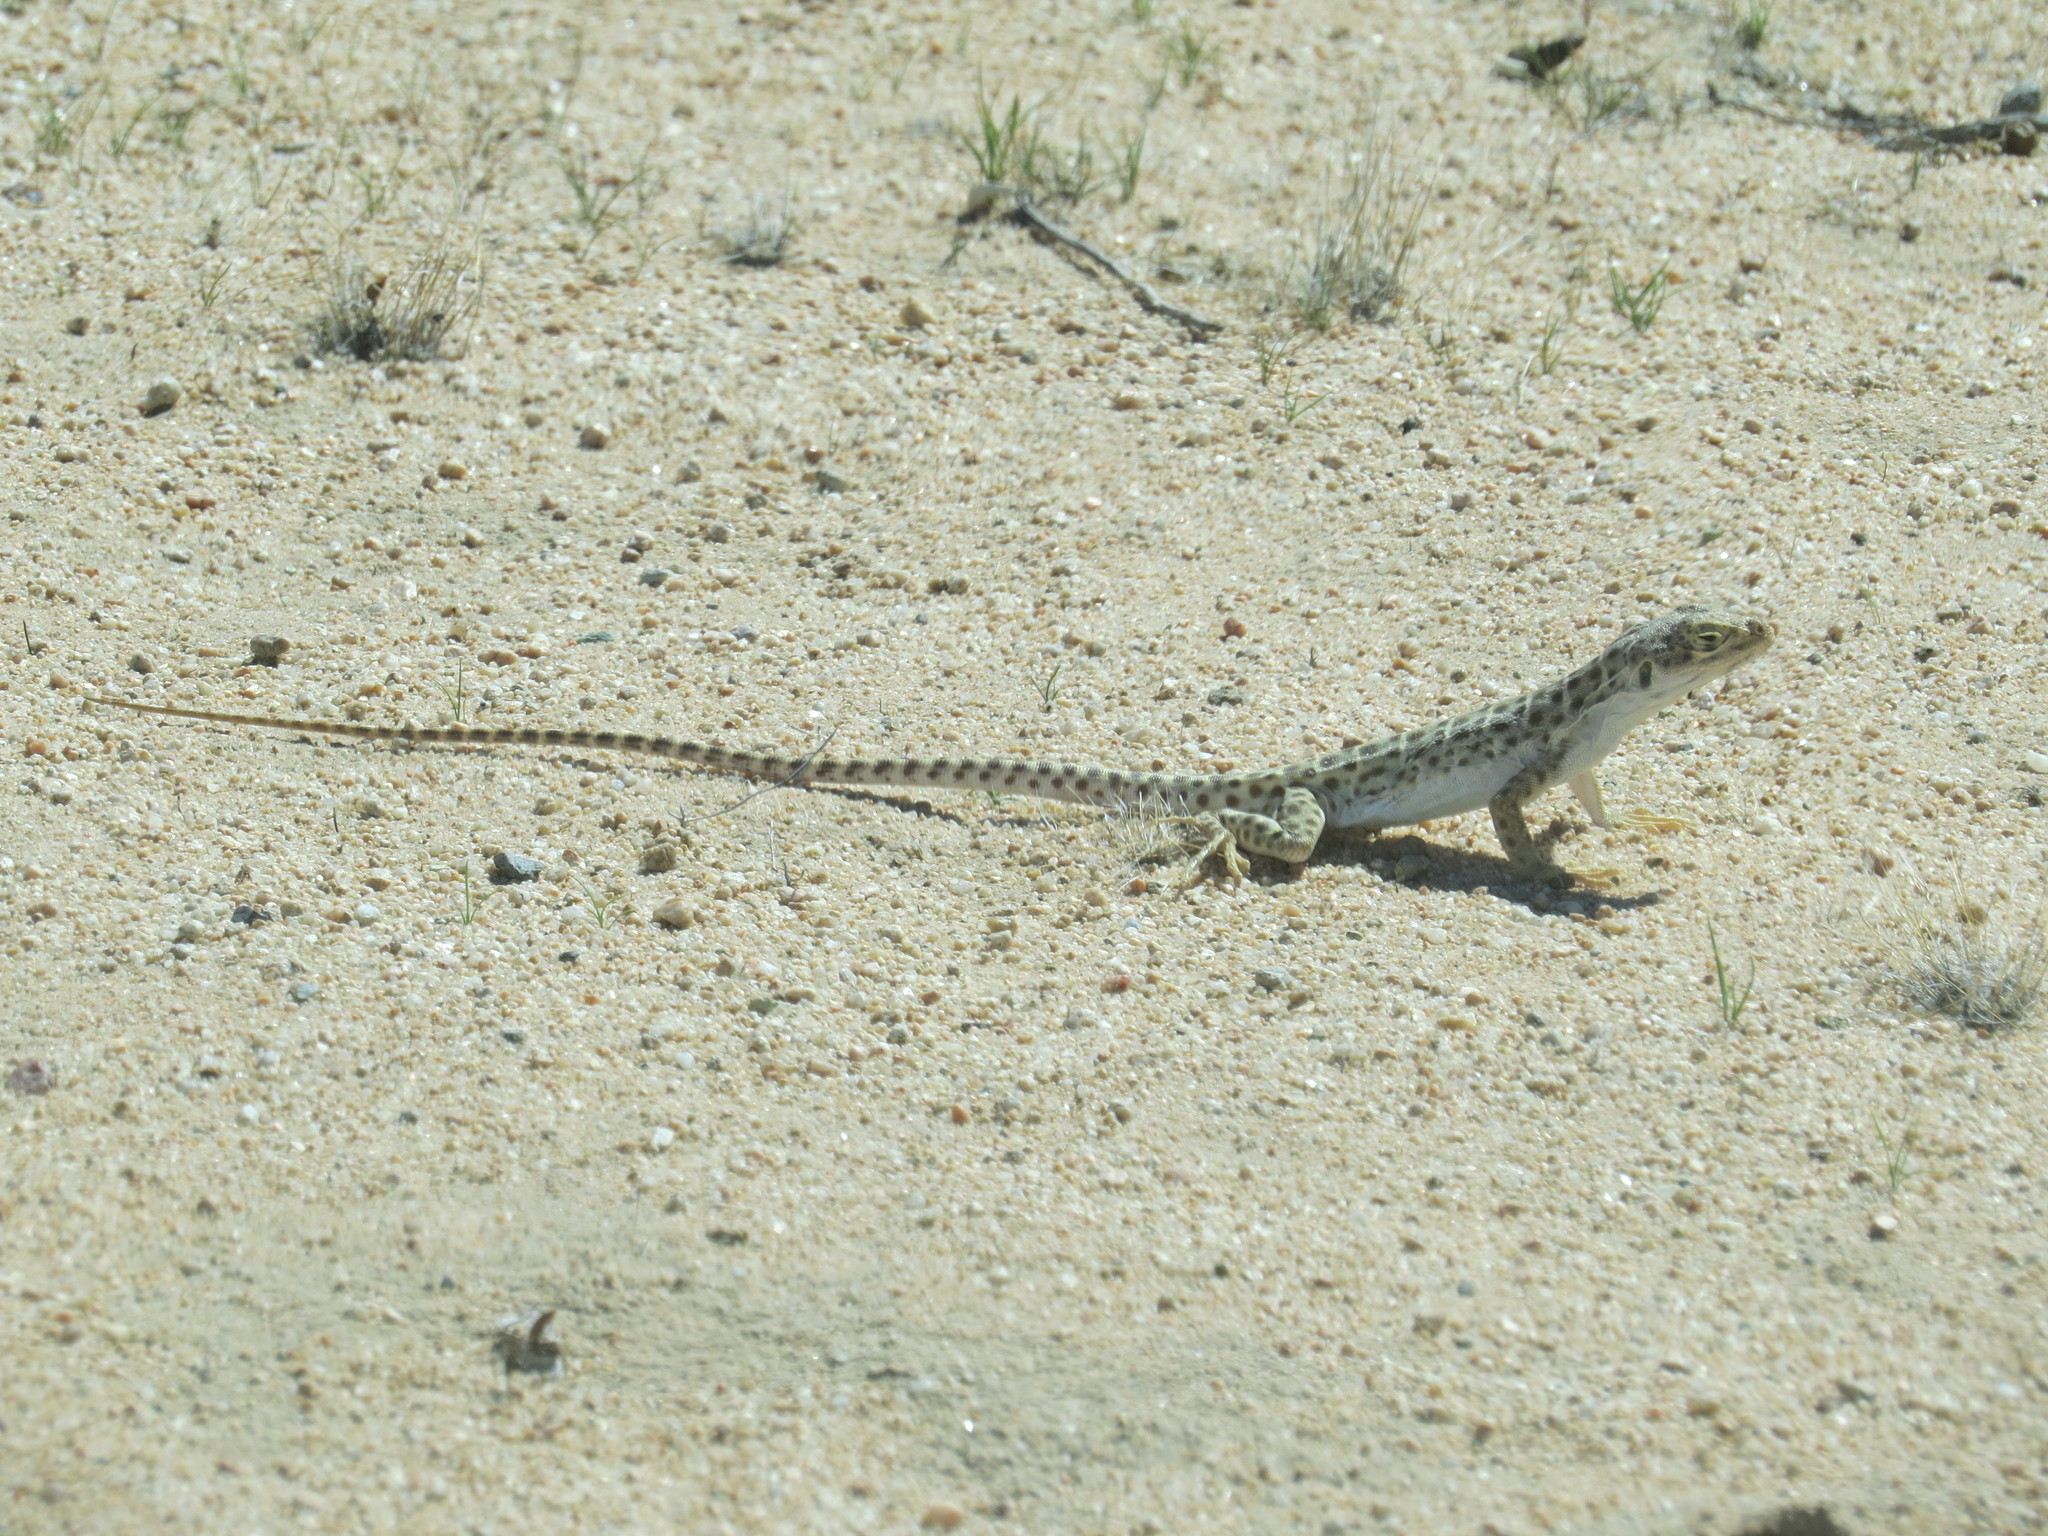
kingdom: Animalia
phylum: Chordata
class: Squamata
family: Crotaphytidae
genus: Gambelia
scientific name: Gambelia wislizenii
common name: Longnose leopard lizard
